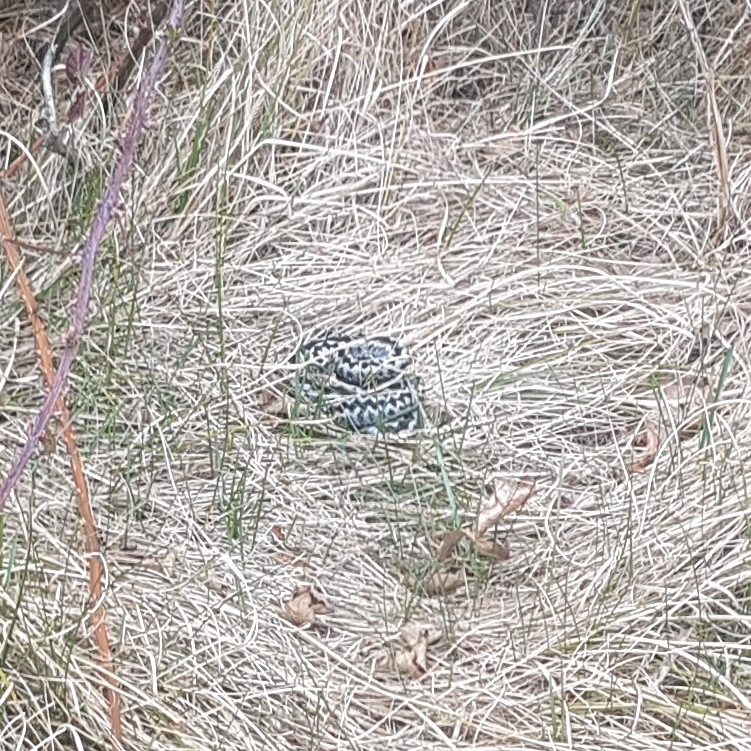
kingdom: Animalia
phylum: Chordata
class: Squamata
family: Viperidae
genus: Vipera
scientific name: Vipera berus
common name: Adder
